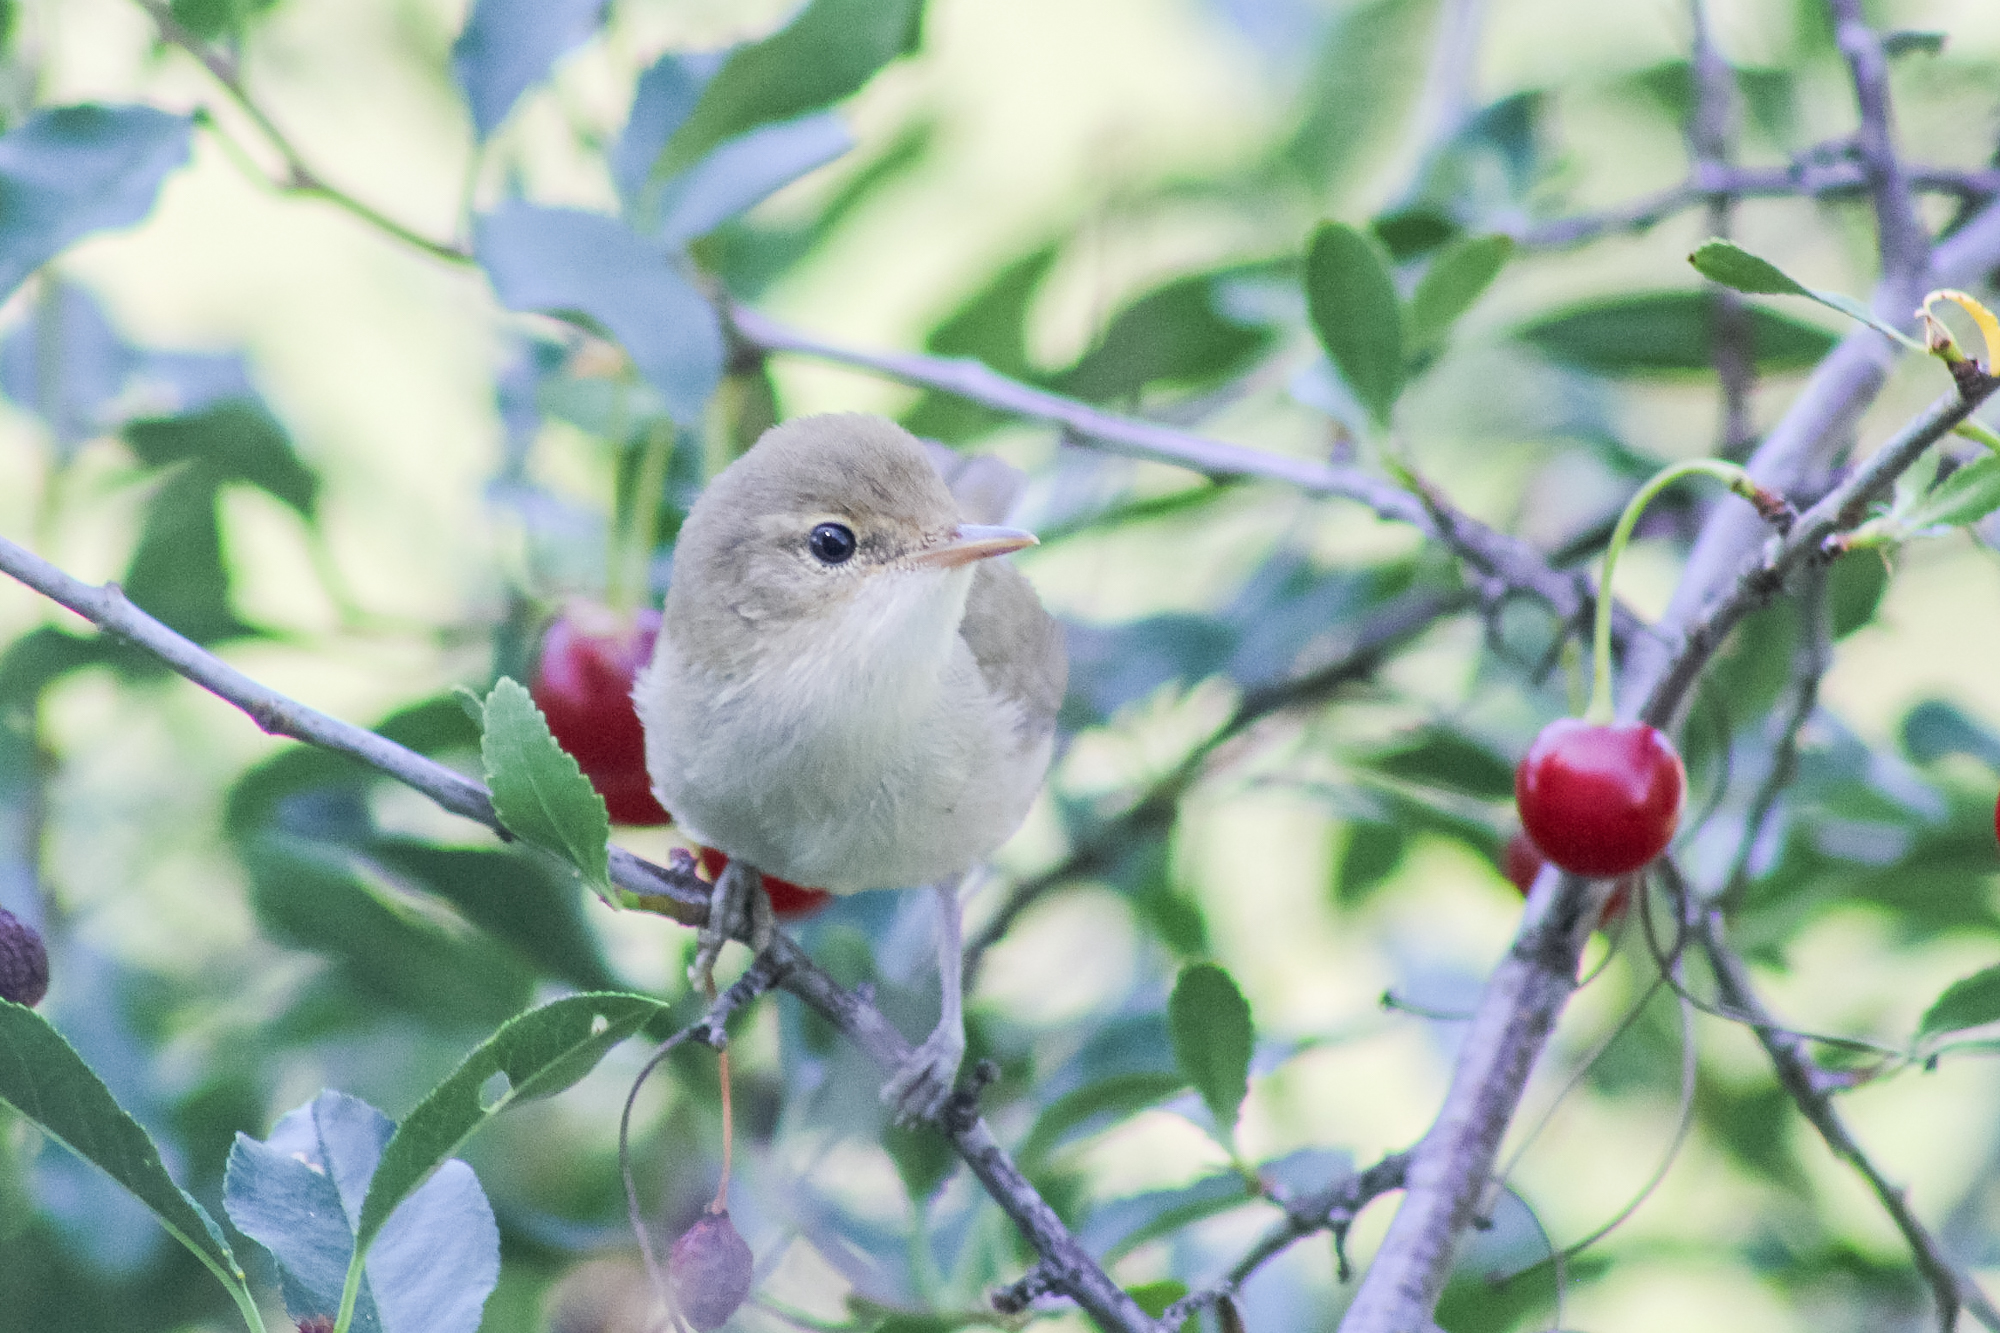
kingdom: Animalia
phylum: Chordata
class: Aves
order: Passeriformes
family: Acrocephalidae
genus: Acrocephalus
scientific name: Acrocephalus dumetorum
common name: Blyth's reed warbler
